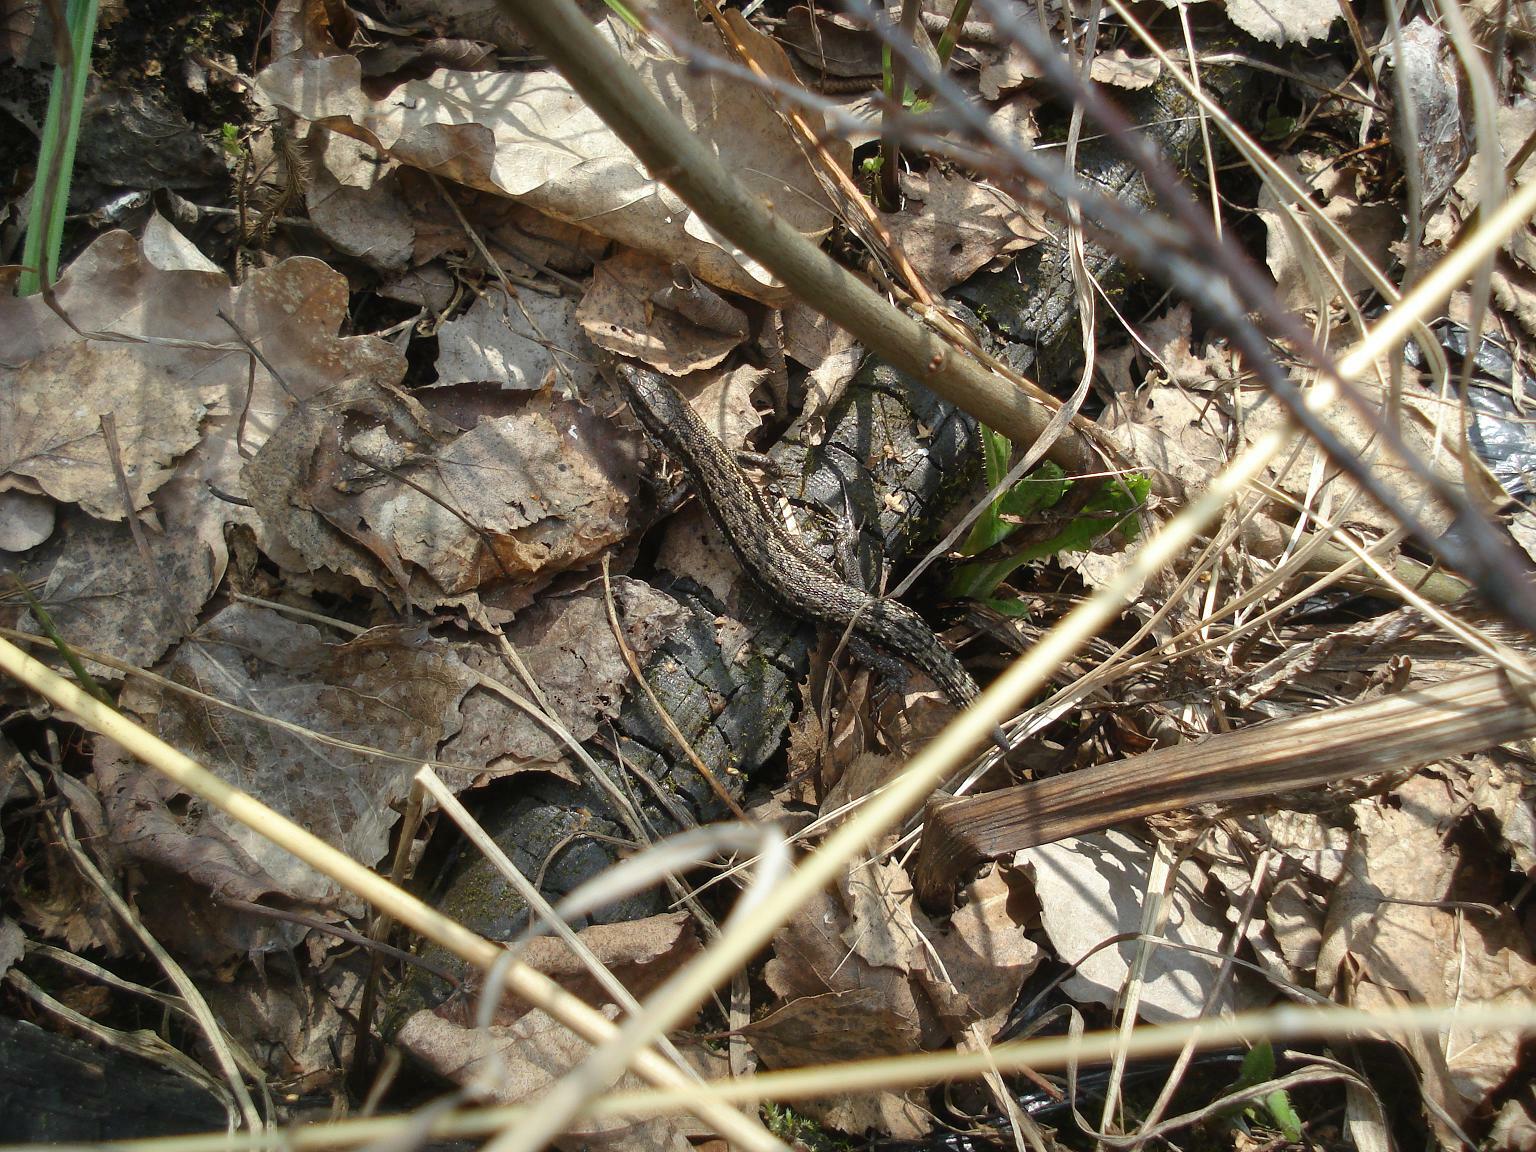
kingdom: Animalia
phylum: Chordata
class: Squamata
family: Lacertidae
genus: Zootoca
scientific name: Zootoca vivipara
